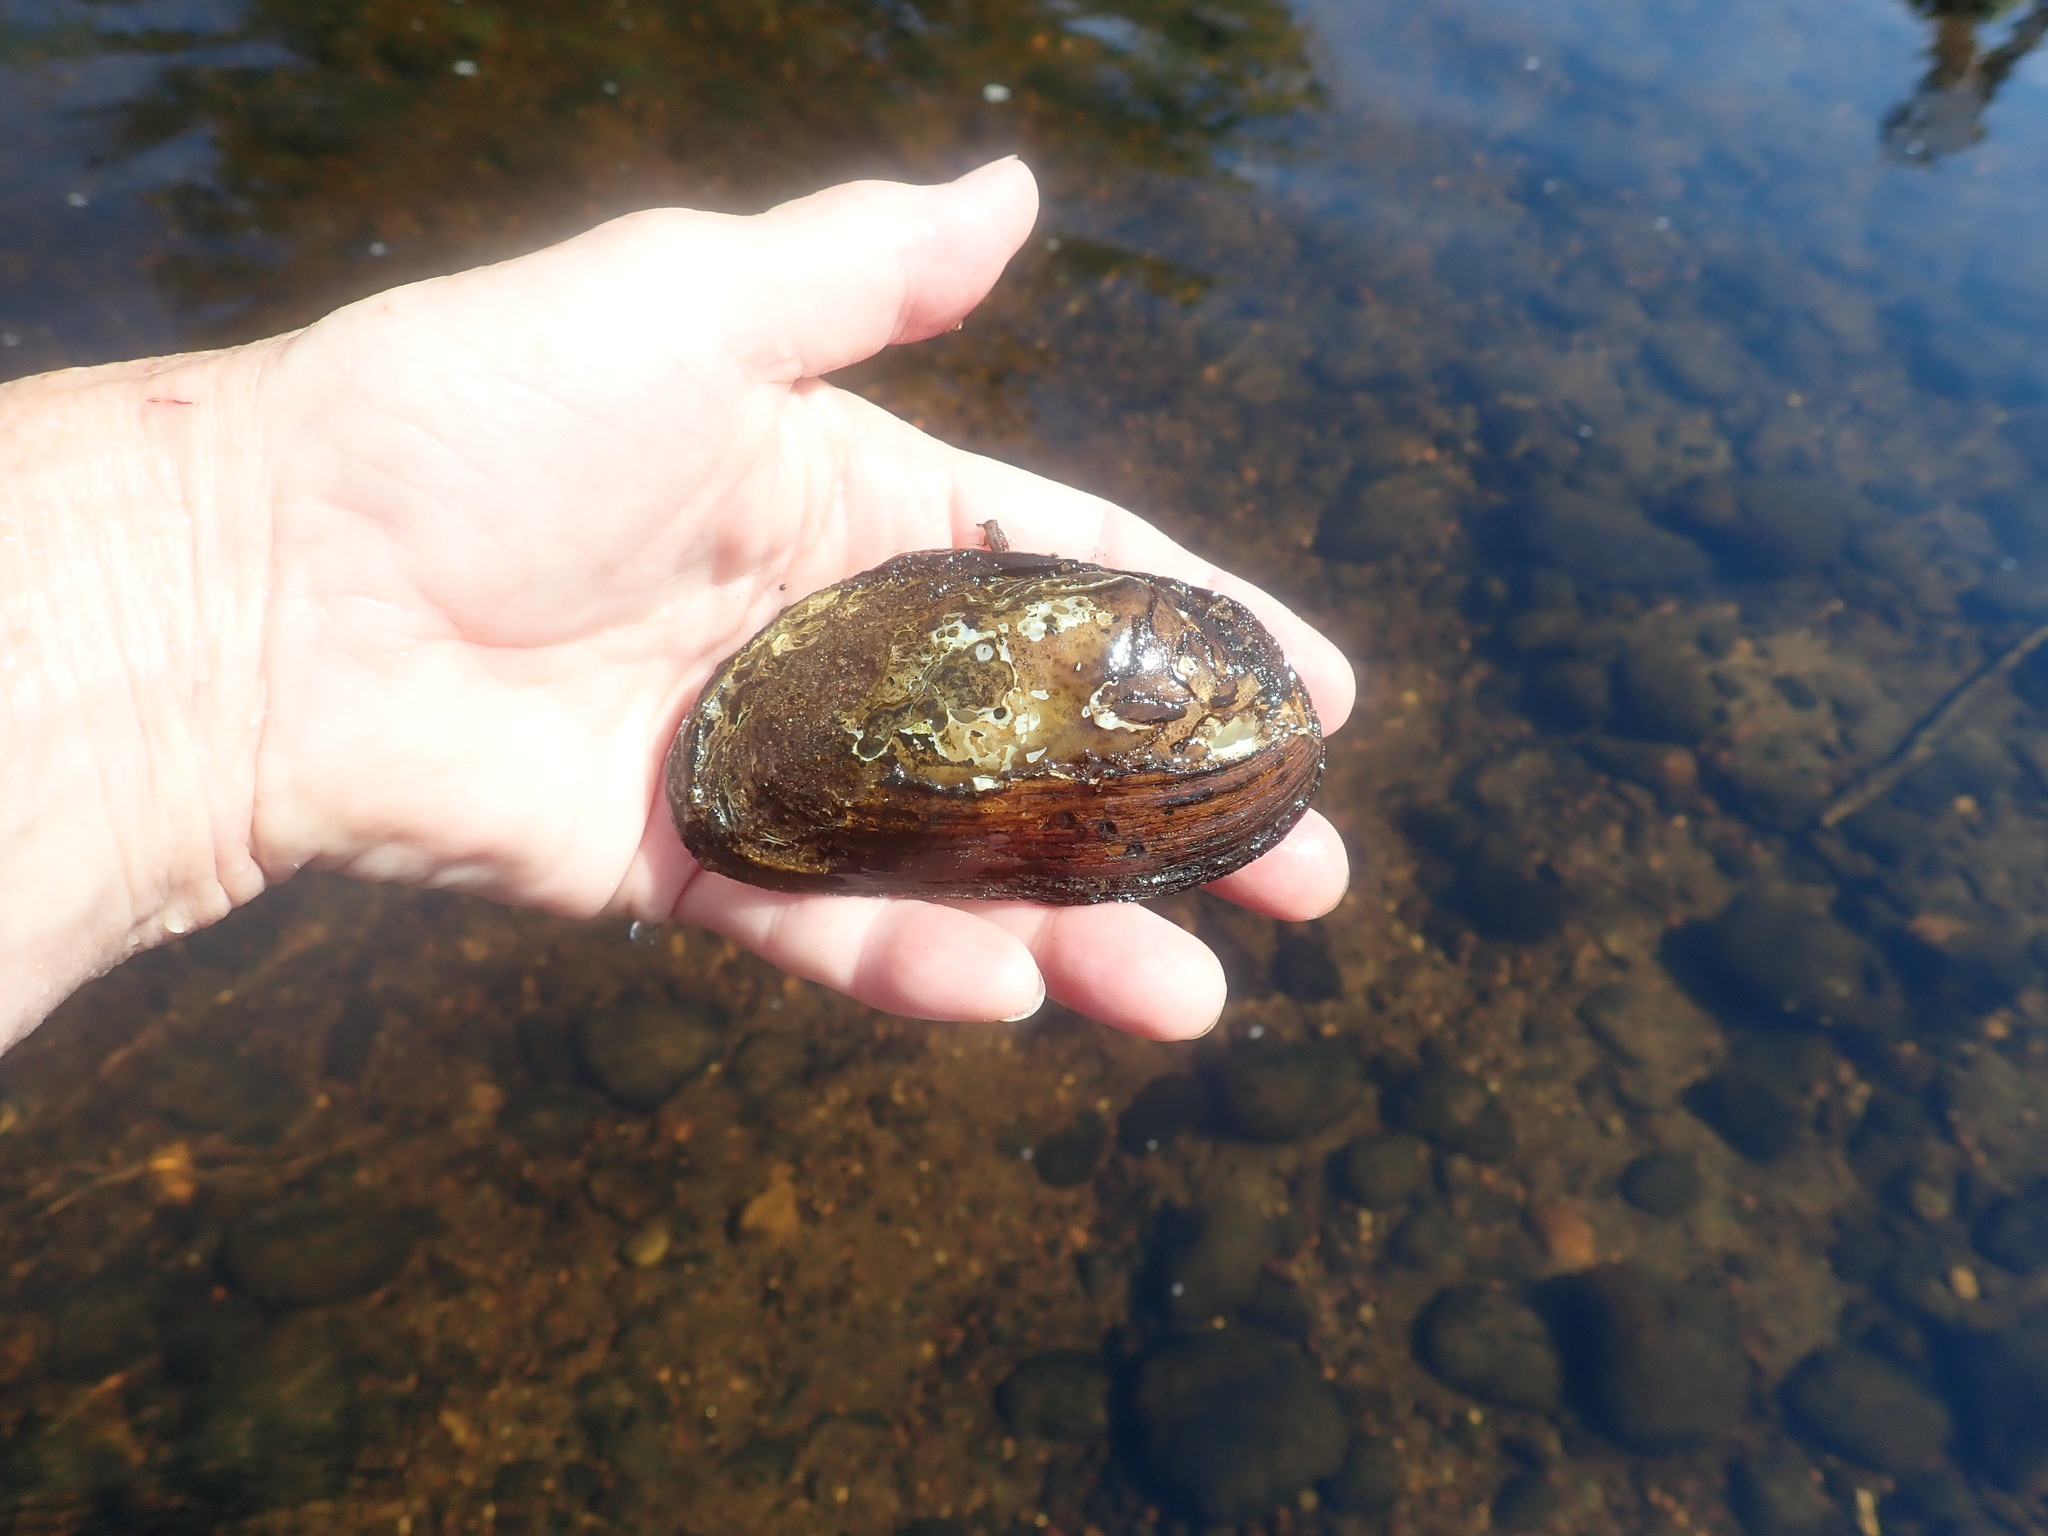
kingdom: Animalia
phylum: Mollusca
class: Bivalvia
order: Unionida
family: Unionidae
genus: Elliptio
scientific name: Elliptio complanata
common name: Eastern elliptio
